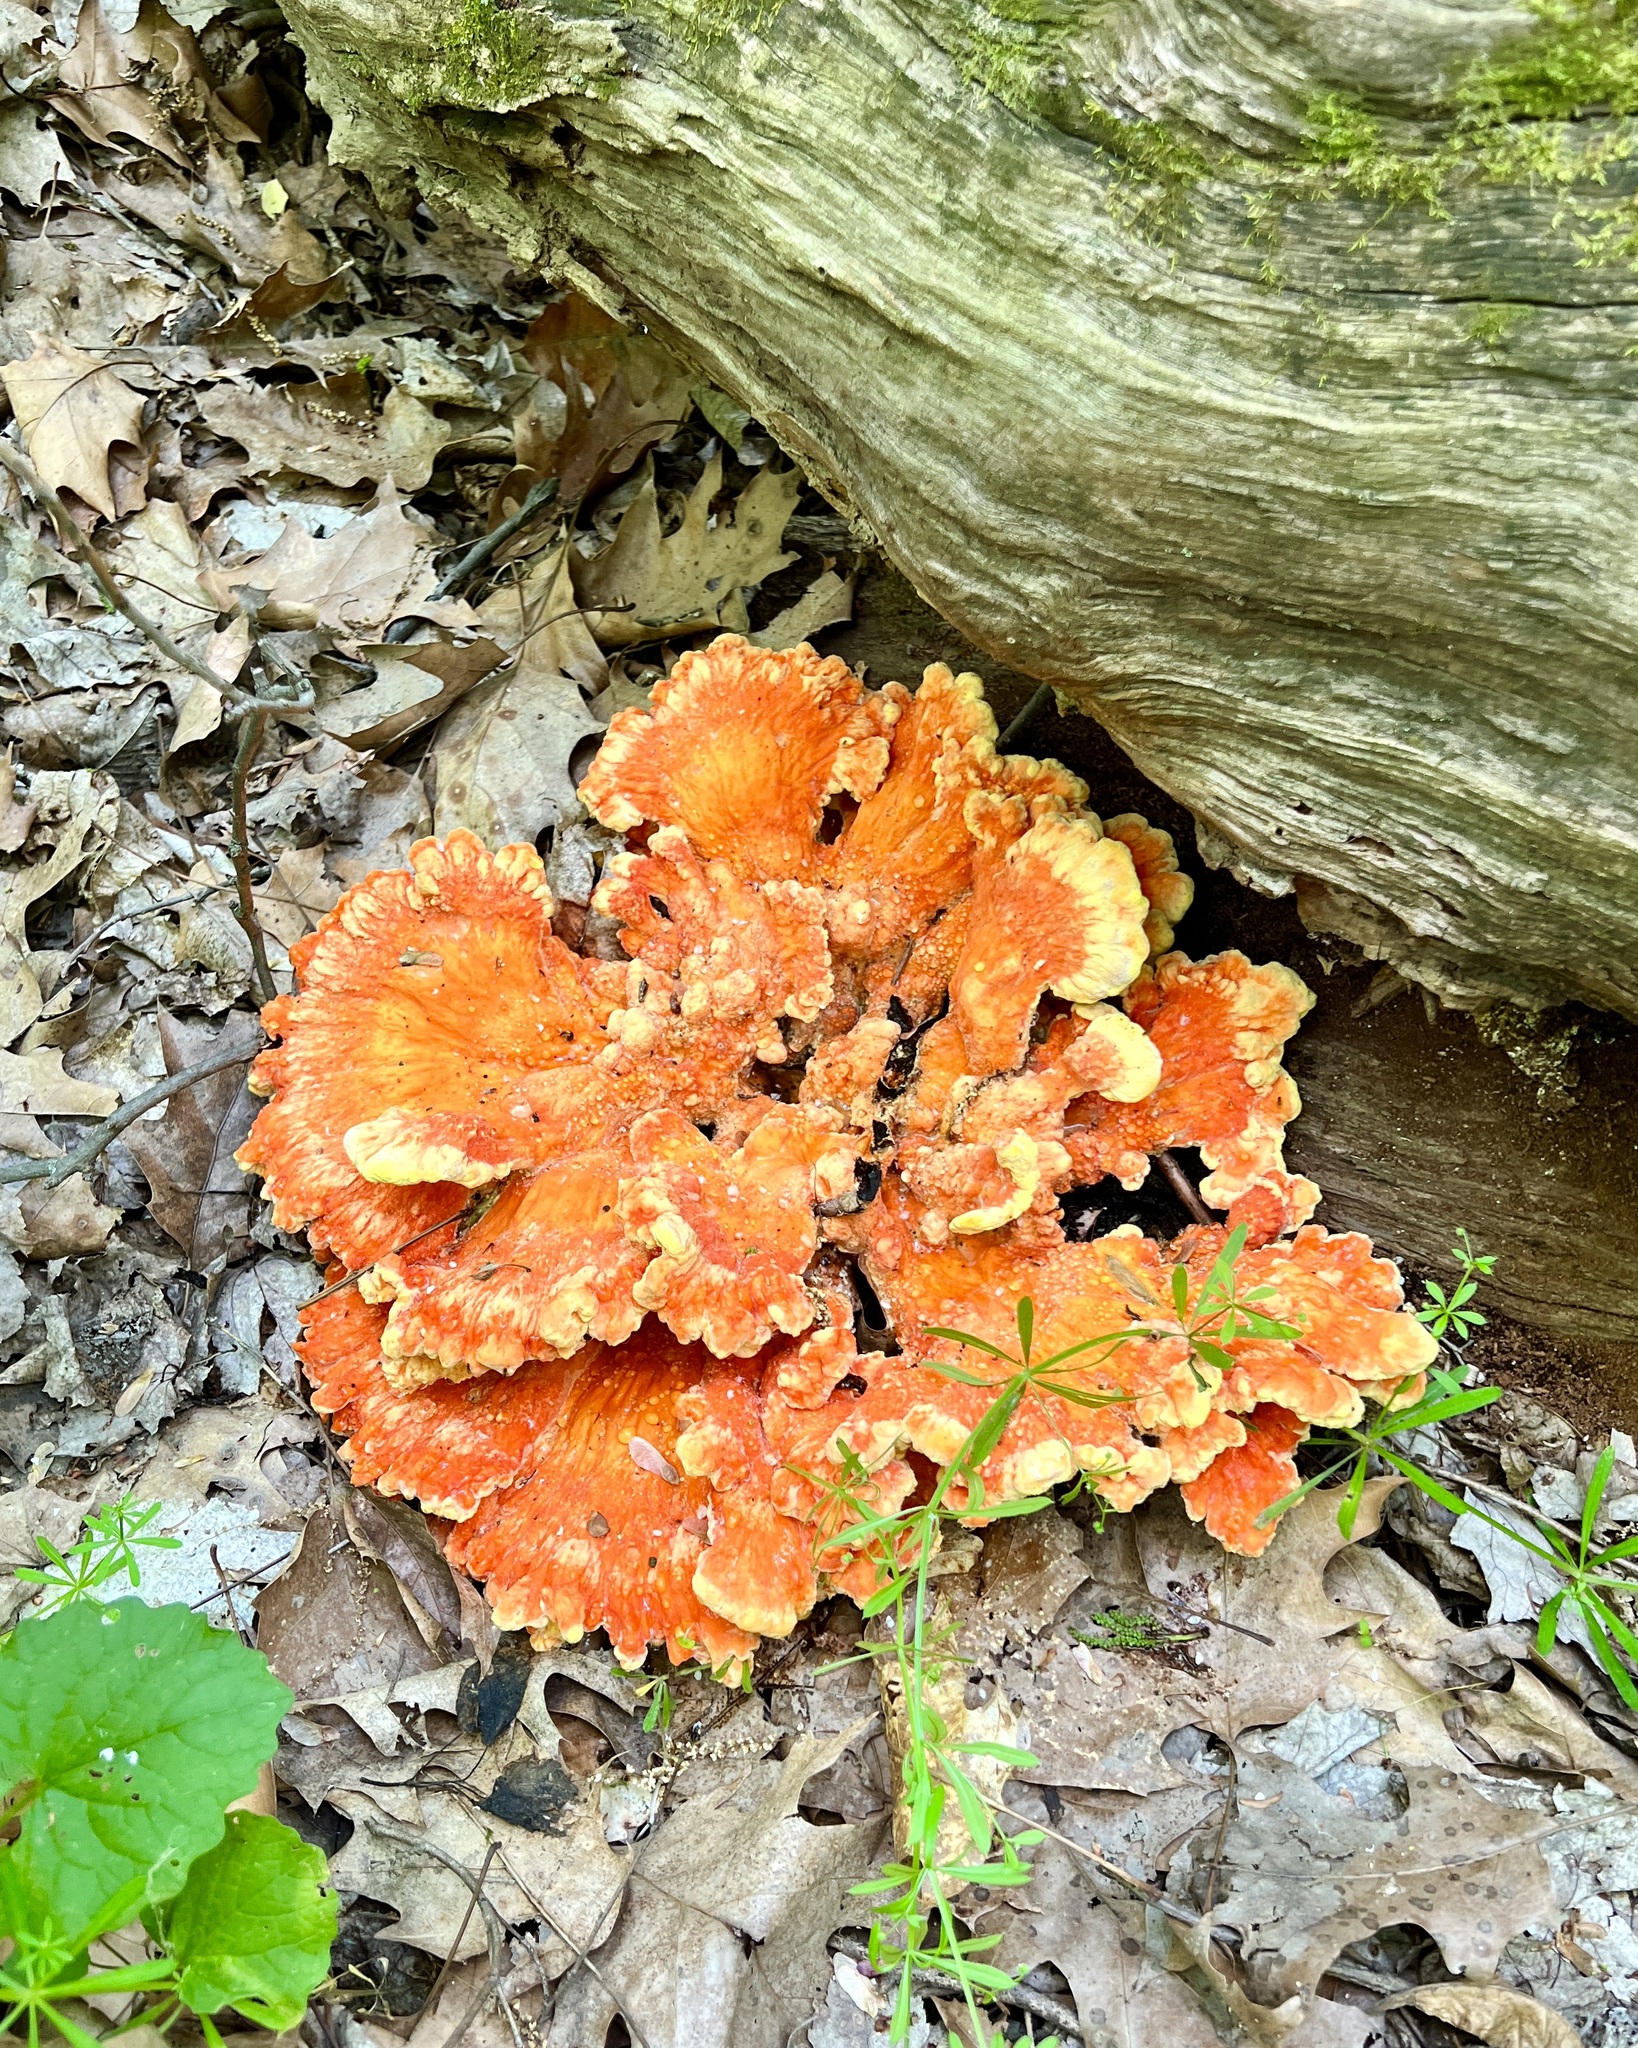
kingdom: Fungi
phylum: Basidiomycota
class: Agaricomycetes
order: Polyporales
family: Laetiporaceae
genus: Laetiporus
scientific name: Laetiporus sulphureus
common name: Chicken of the woods
